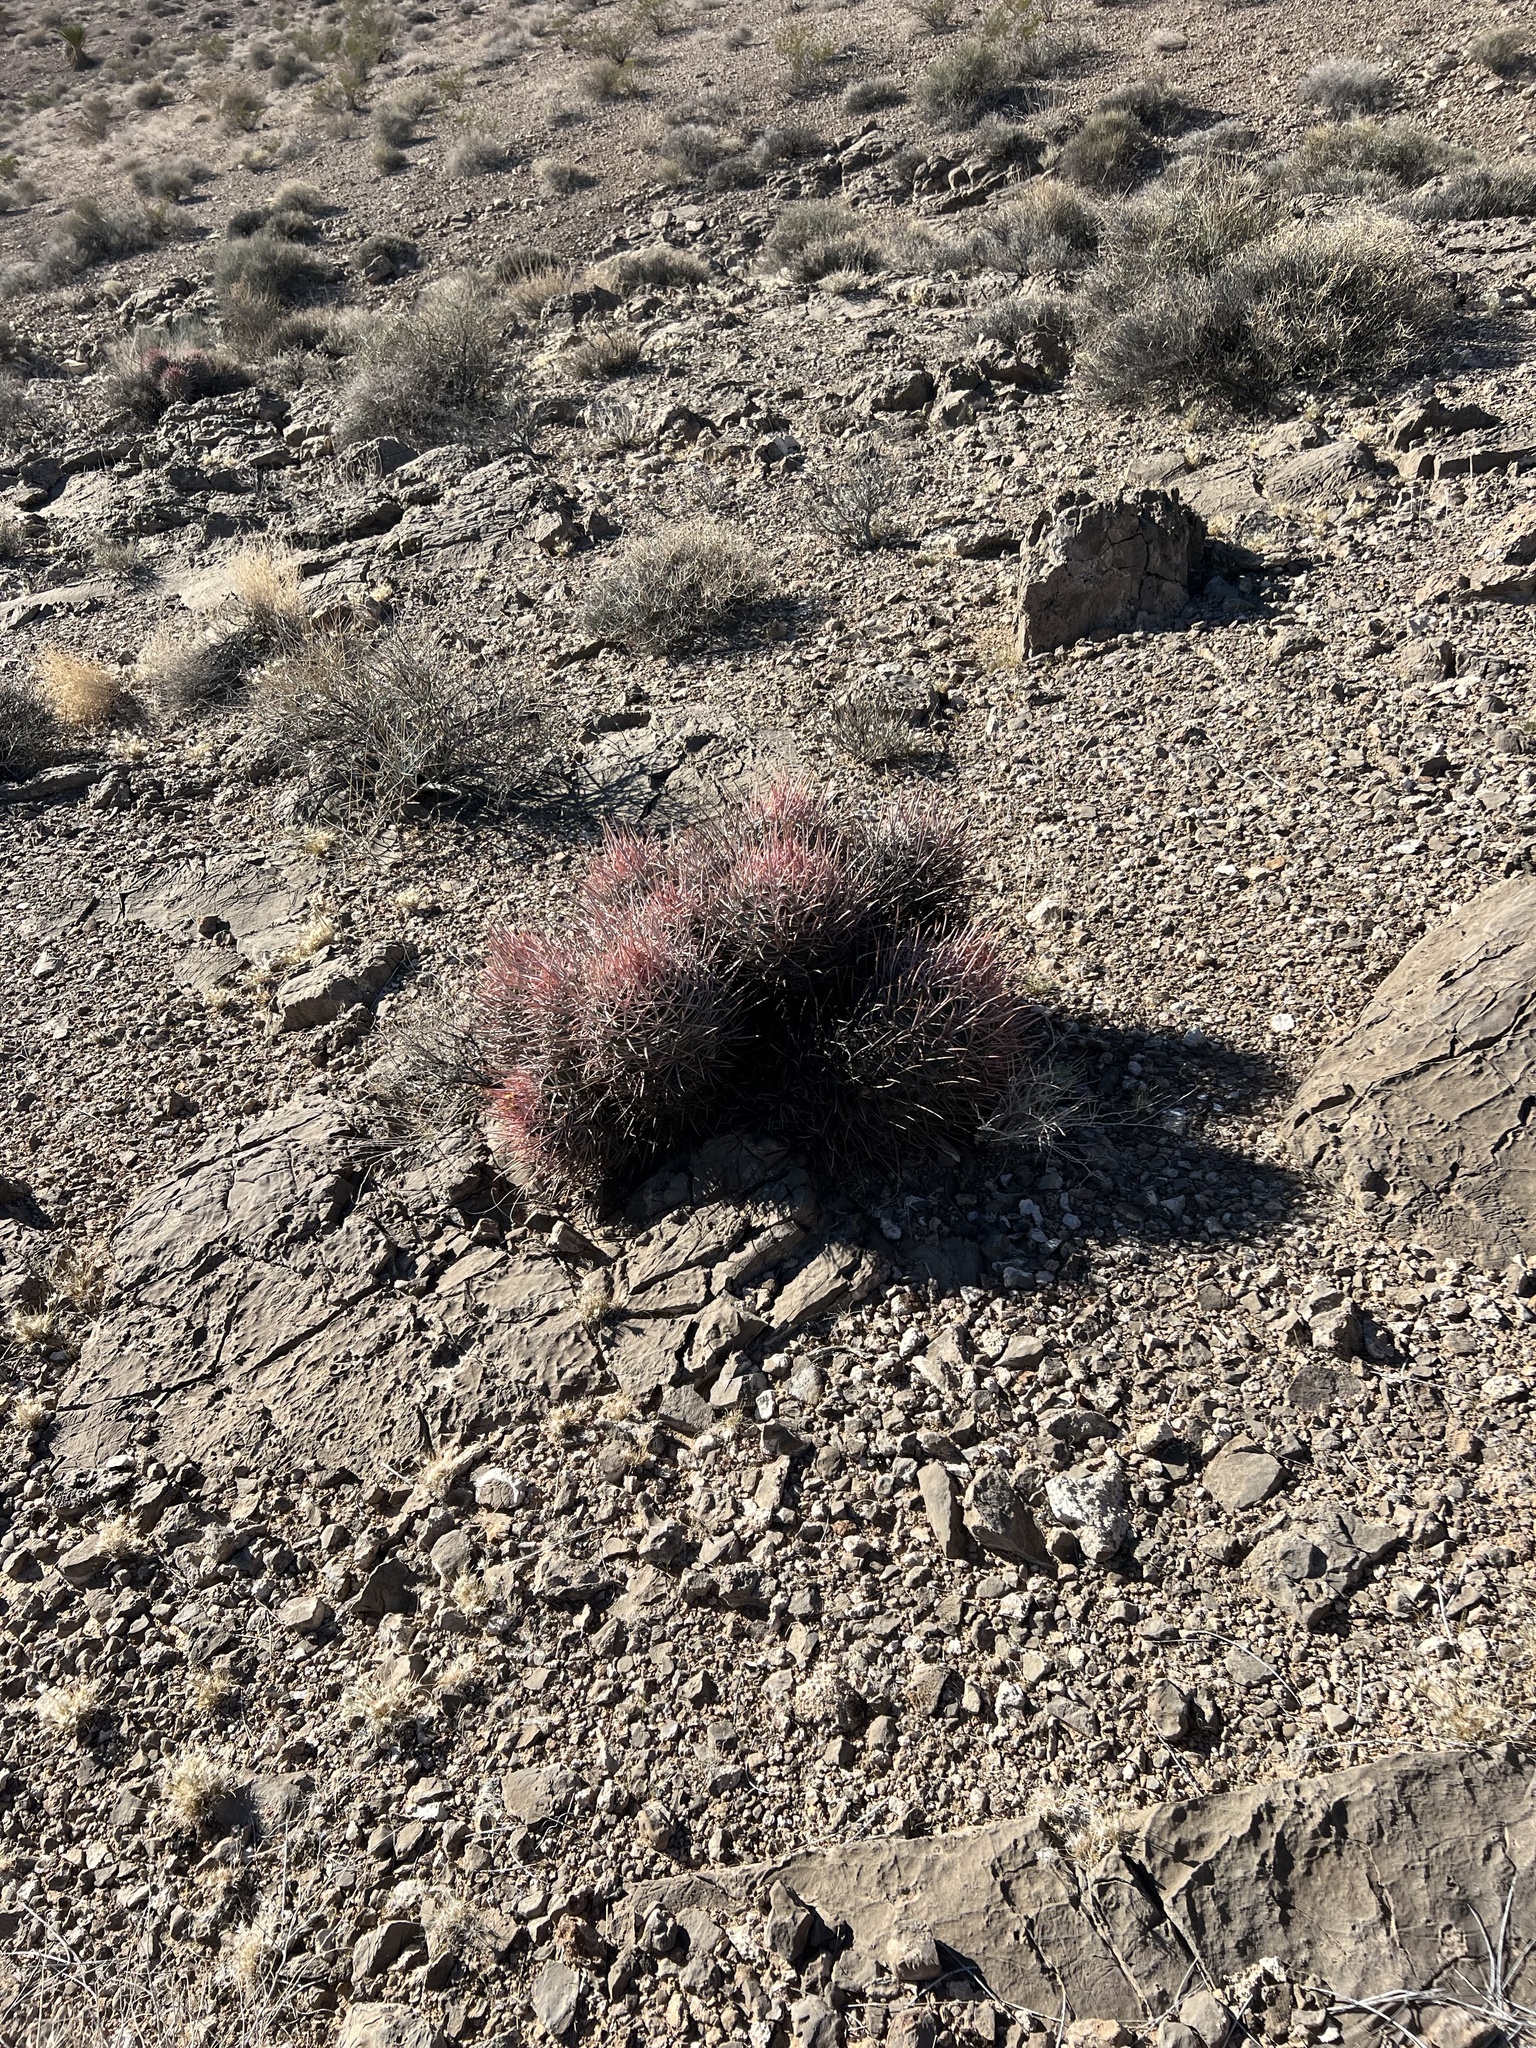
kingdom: Plantae
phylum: Tracheophyta
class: Magnoliopsida
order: Caryophyllales
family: Cactaceae
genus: Echinocactus
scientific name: Echinocactus polycephalus
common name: Cottontop cactus
